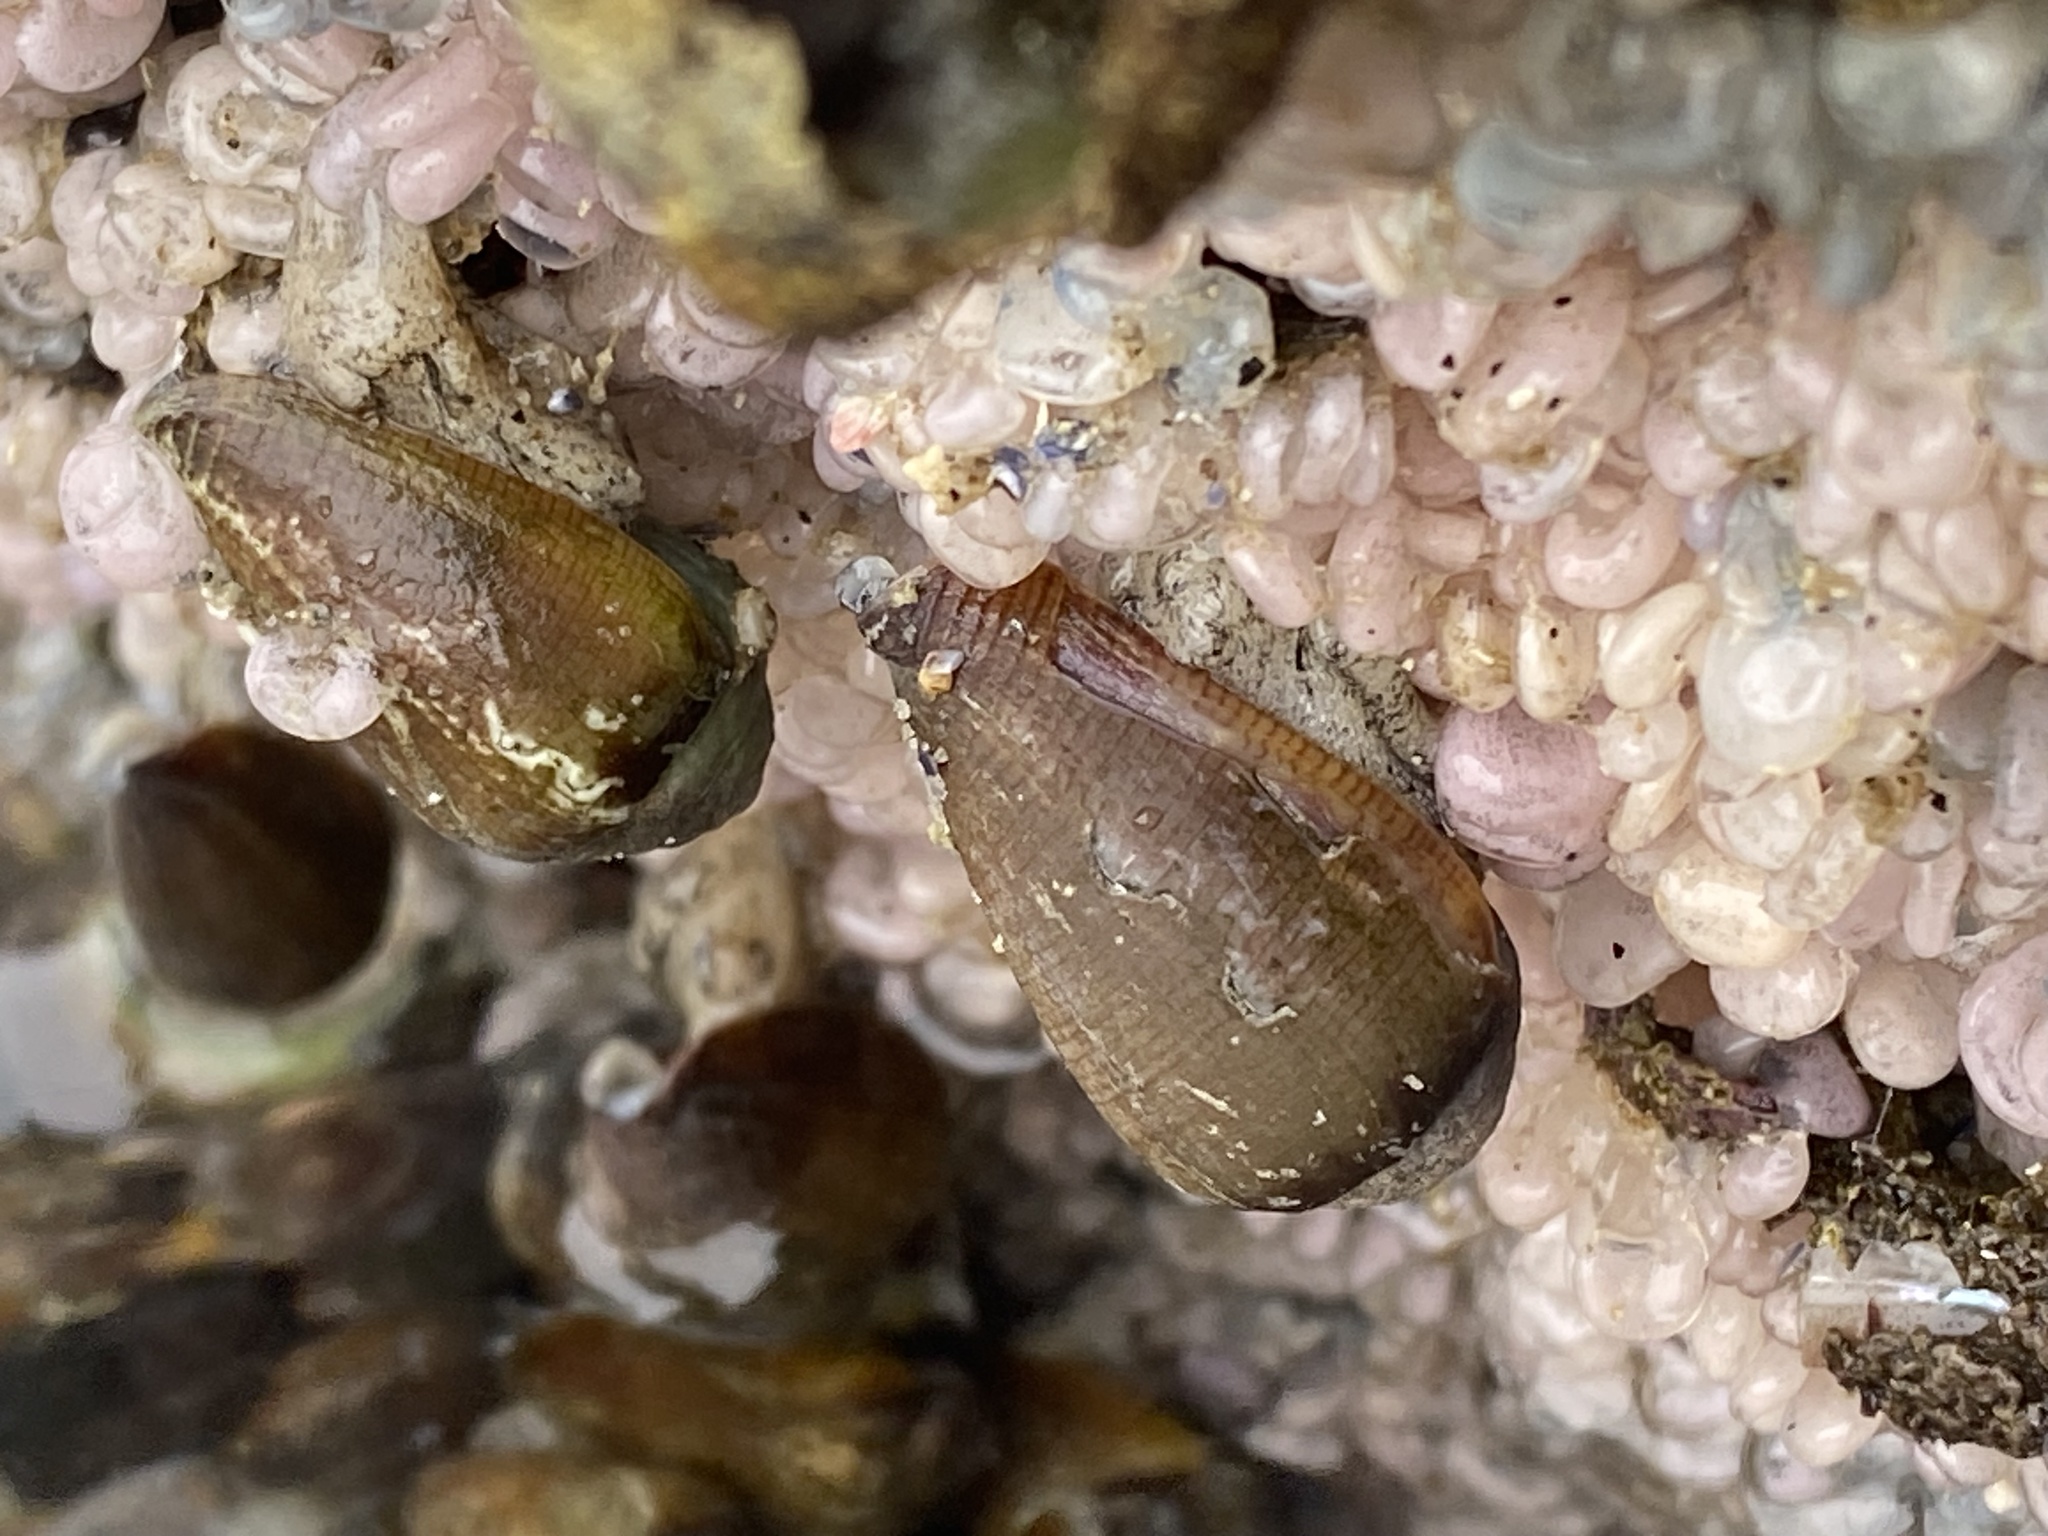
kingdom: Animalia
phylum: Mollusca
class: Gastropoda
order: Neogastropoda
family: Conidae
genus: Californiconus
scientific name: Californiconus californicus
